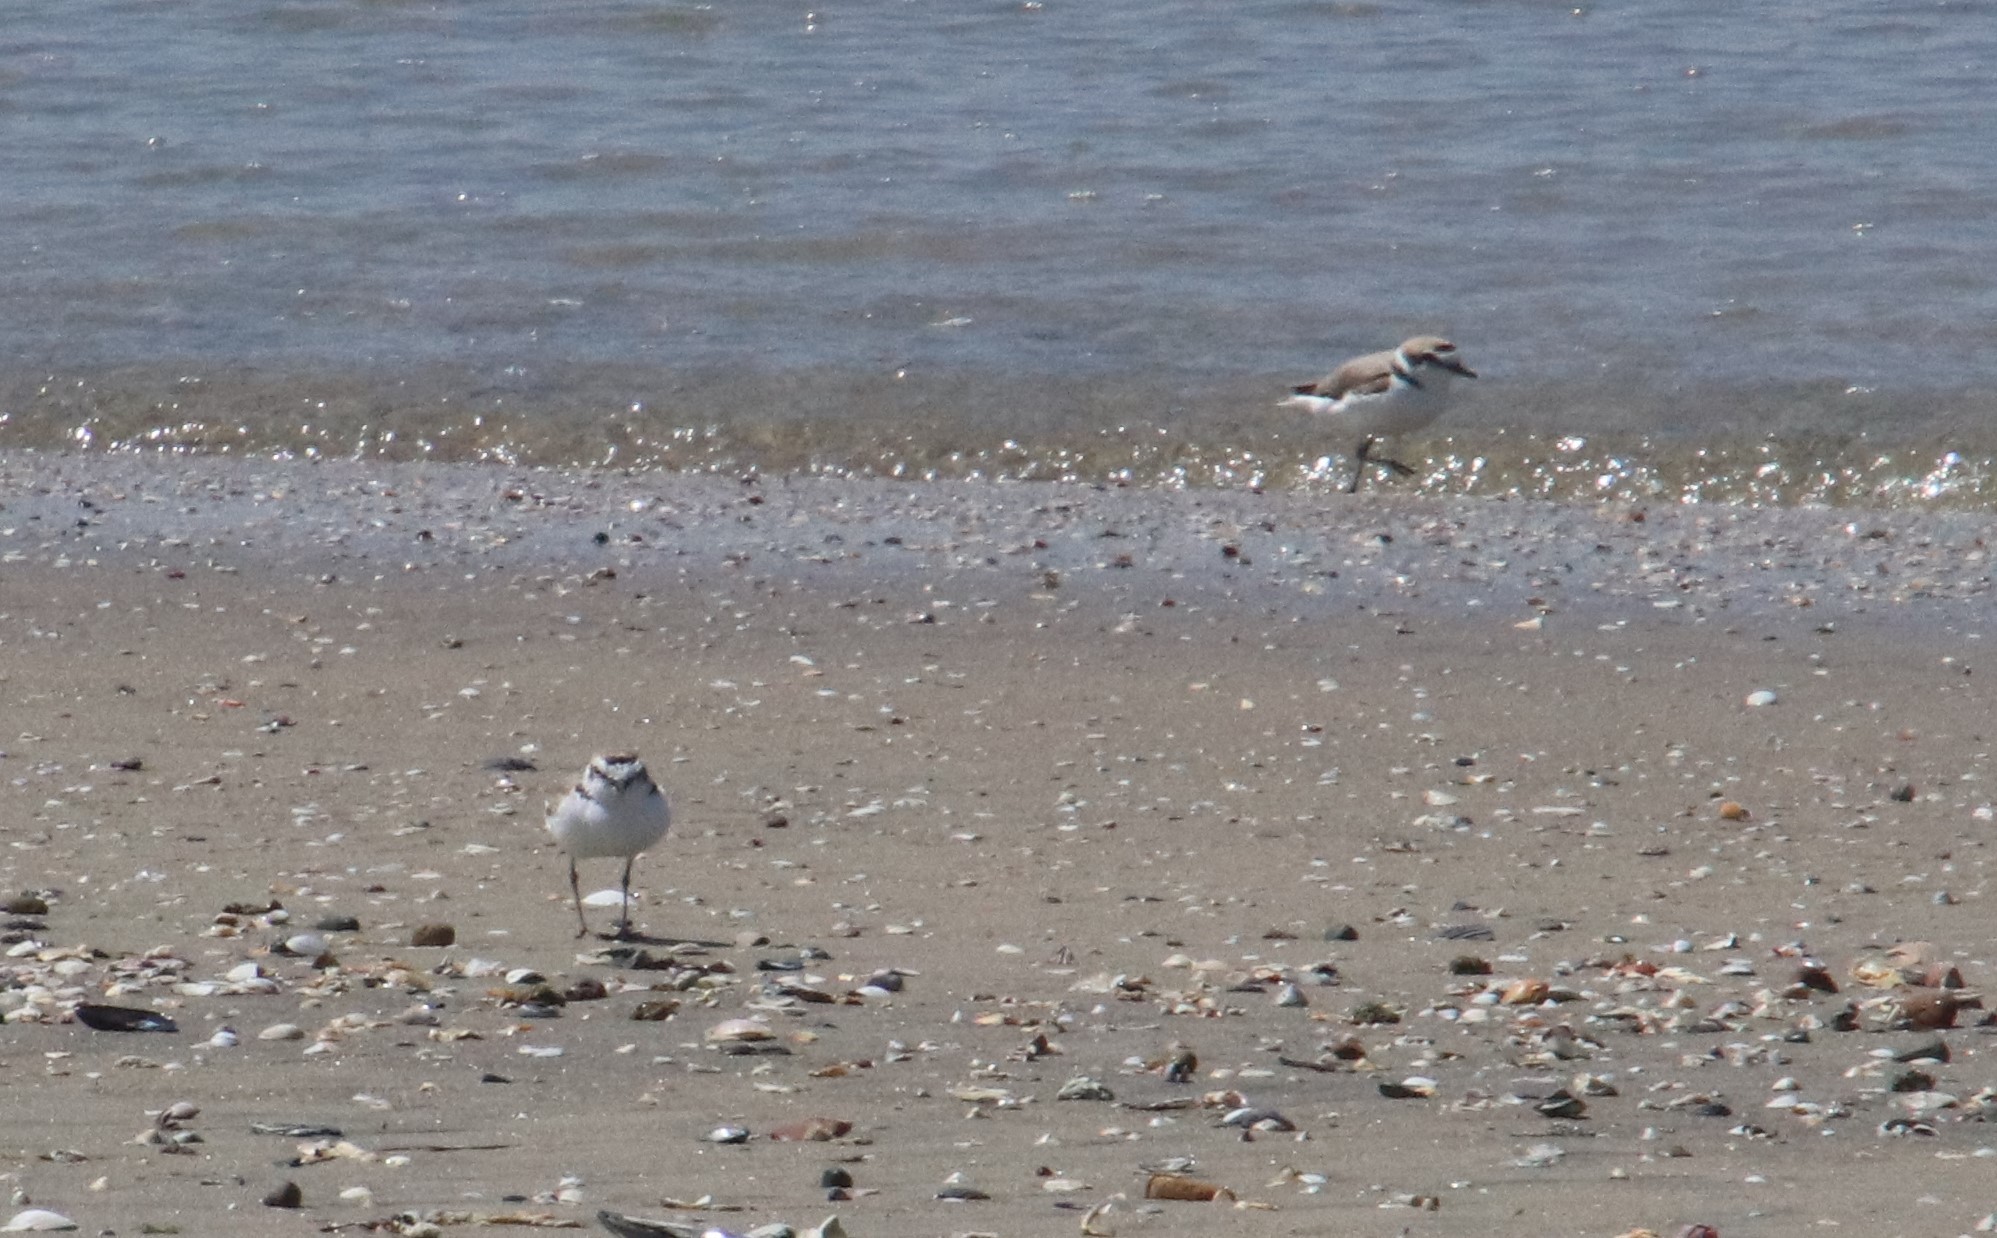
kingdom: Animalia
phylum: Chordata
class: Aves
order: Charadriiformes
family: Charadriidae
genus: Anarhynchus
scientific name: Anarhynchus
